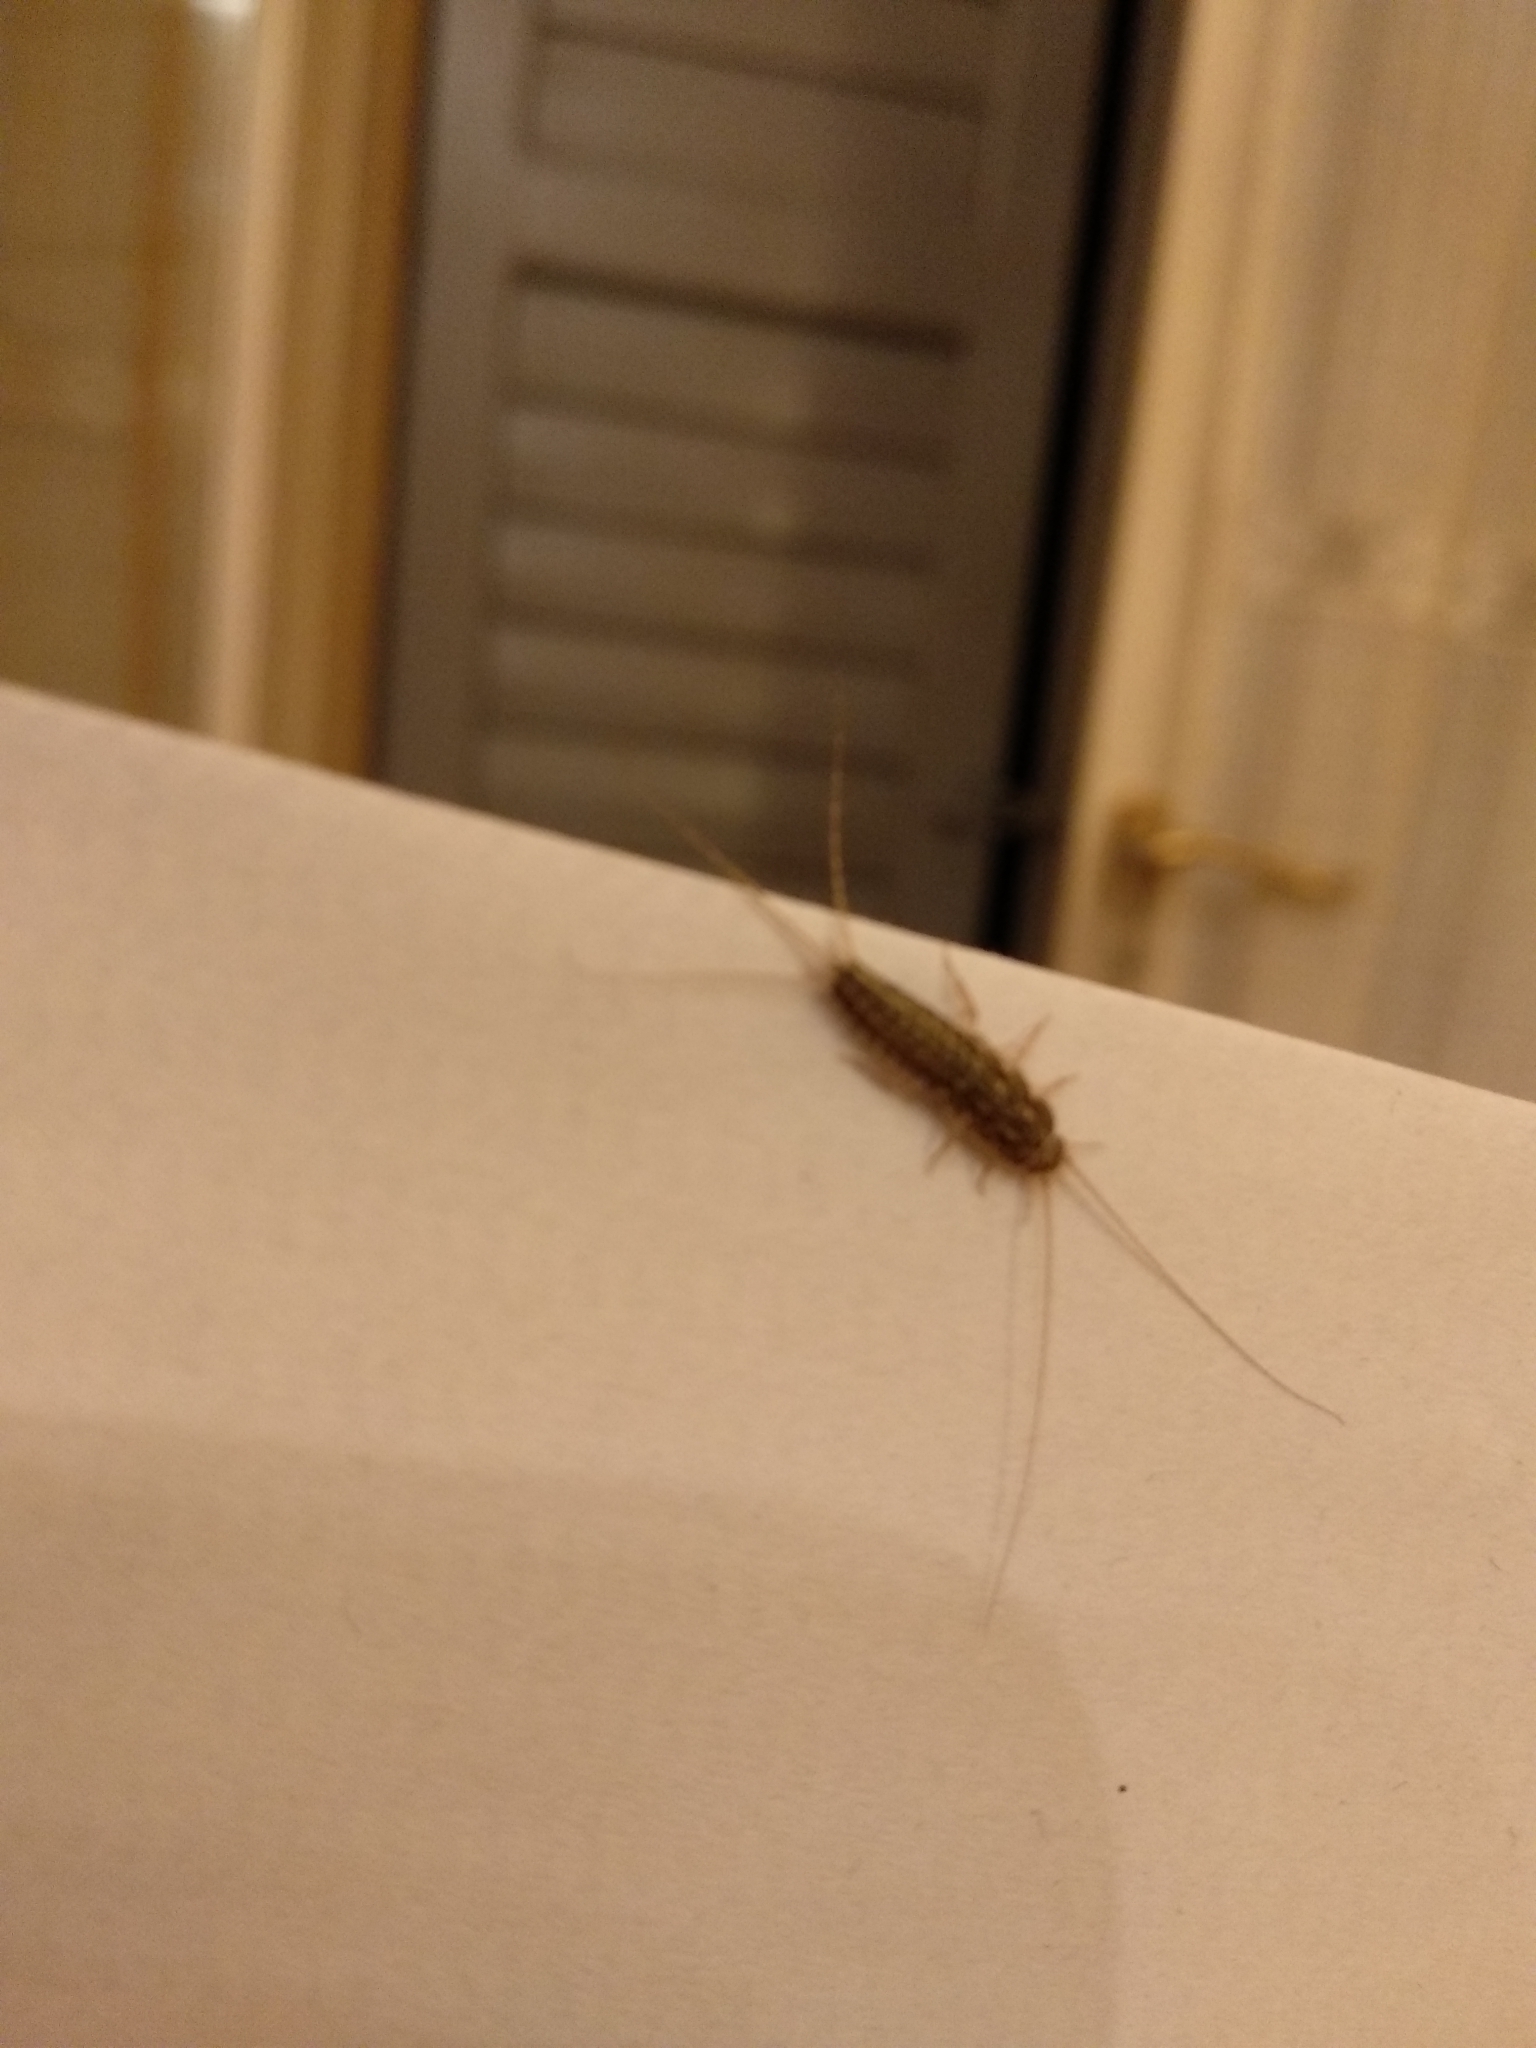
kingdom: Animalia
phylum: Arthropoda
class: Insecta
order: Zygentoma
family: Lepismatidae
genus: Ctenolepisma
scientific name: Ctenolepisma lineata
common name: Four-lined silverfish
